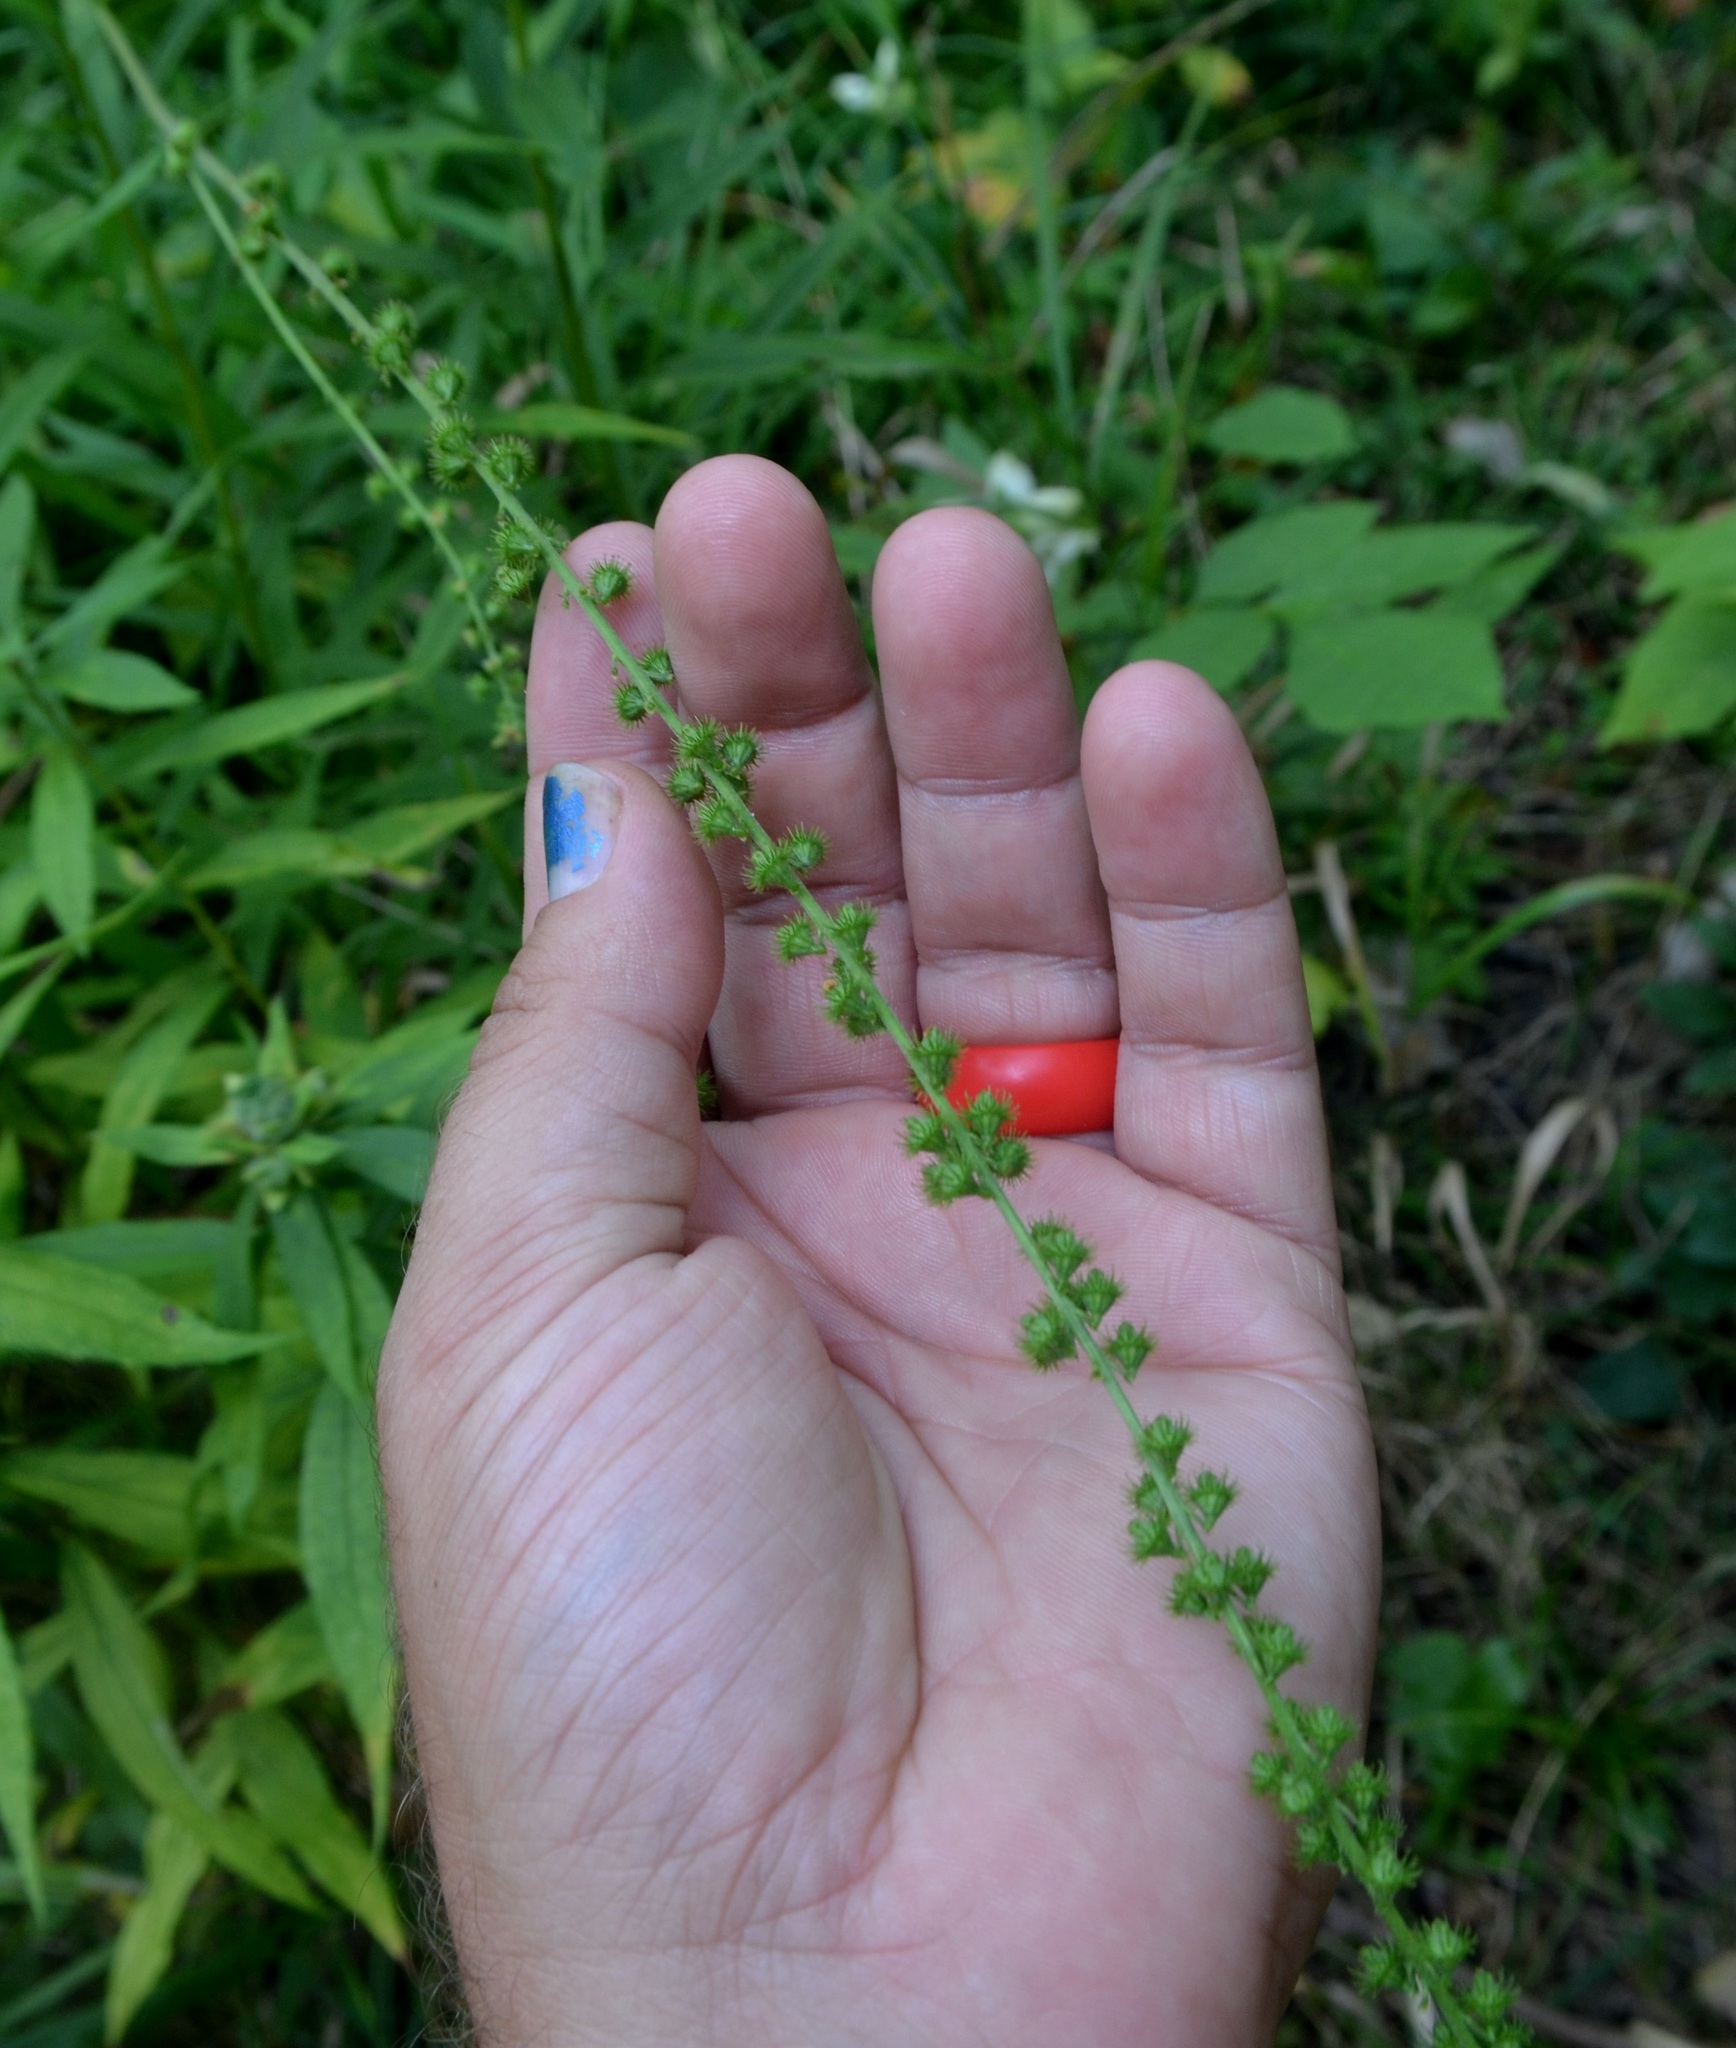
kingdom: Plantae
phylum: Tracheophyta
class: Magnoliopsida
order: Rosales
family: Rosaceae
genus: Agrimonia
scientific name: Agrimonia parviflora
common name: Harvest-lice
